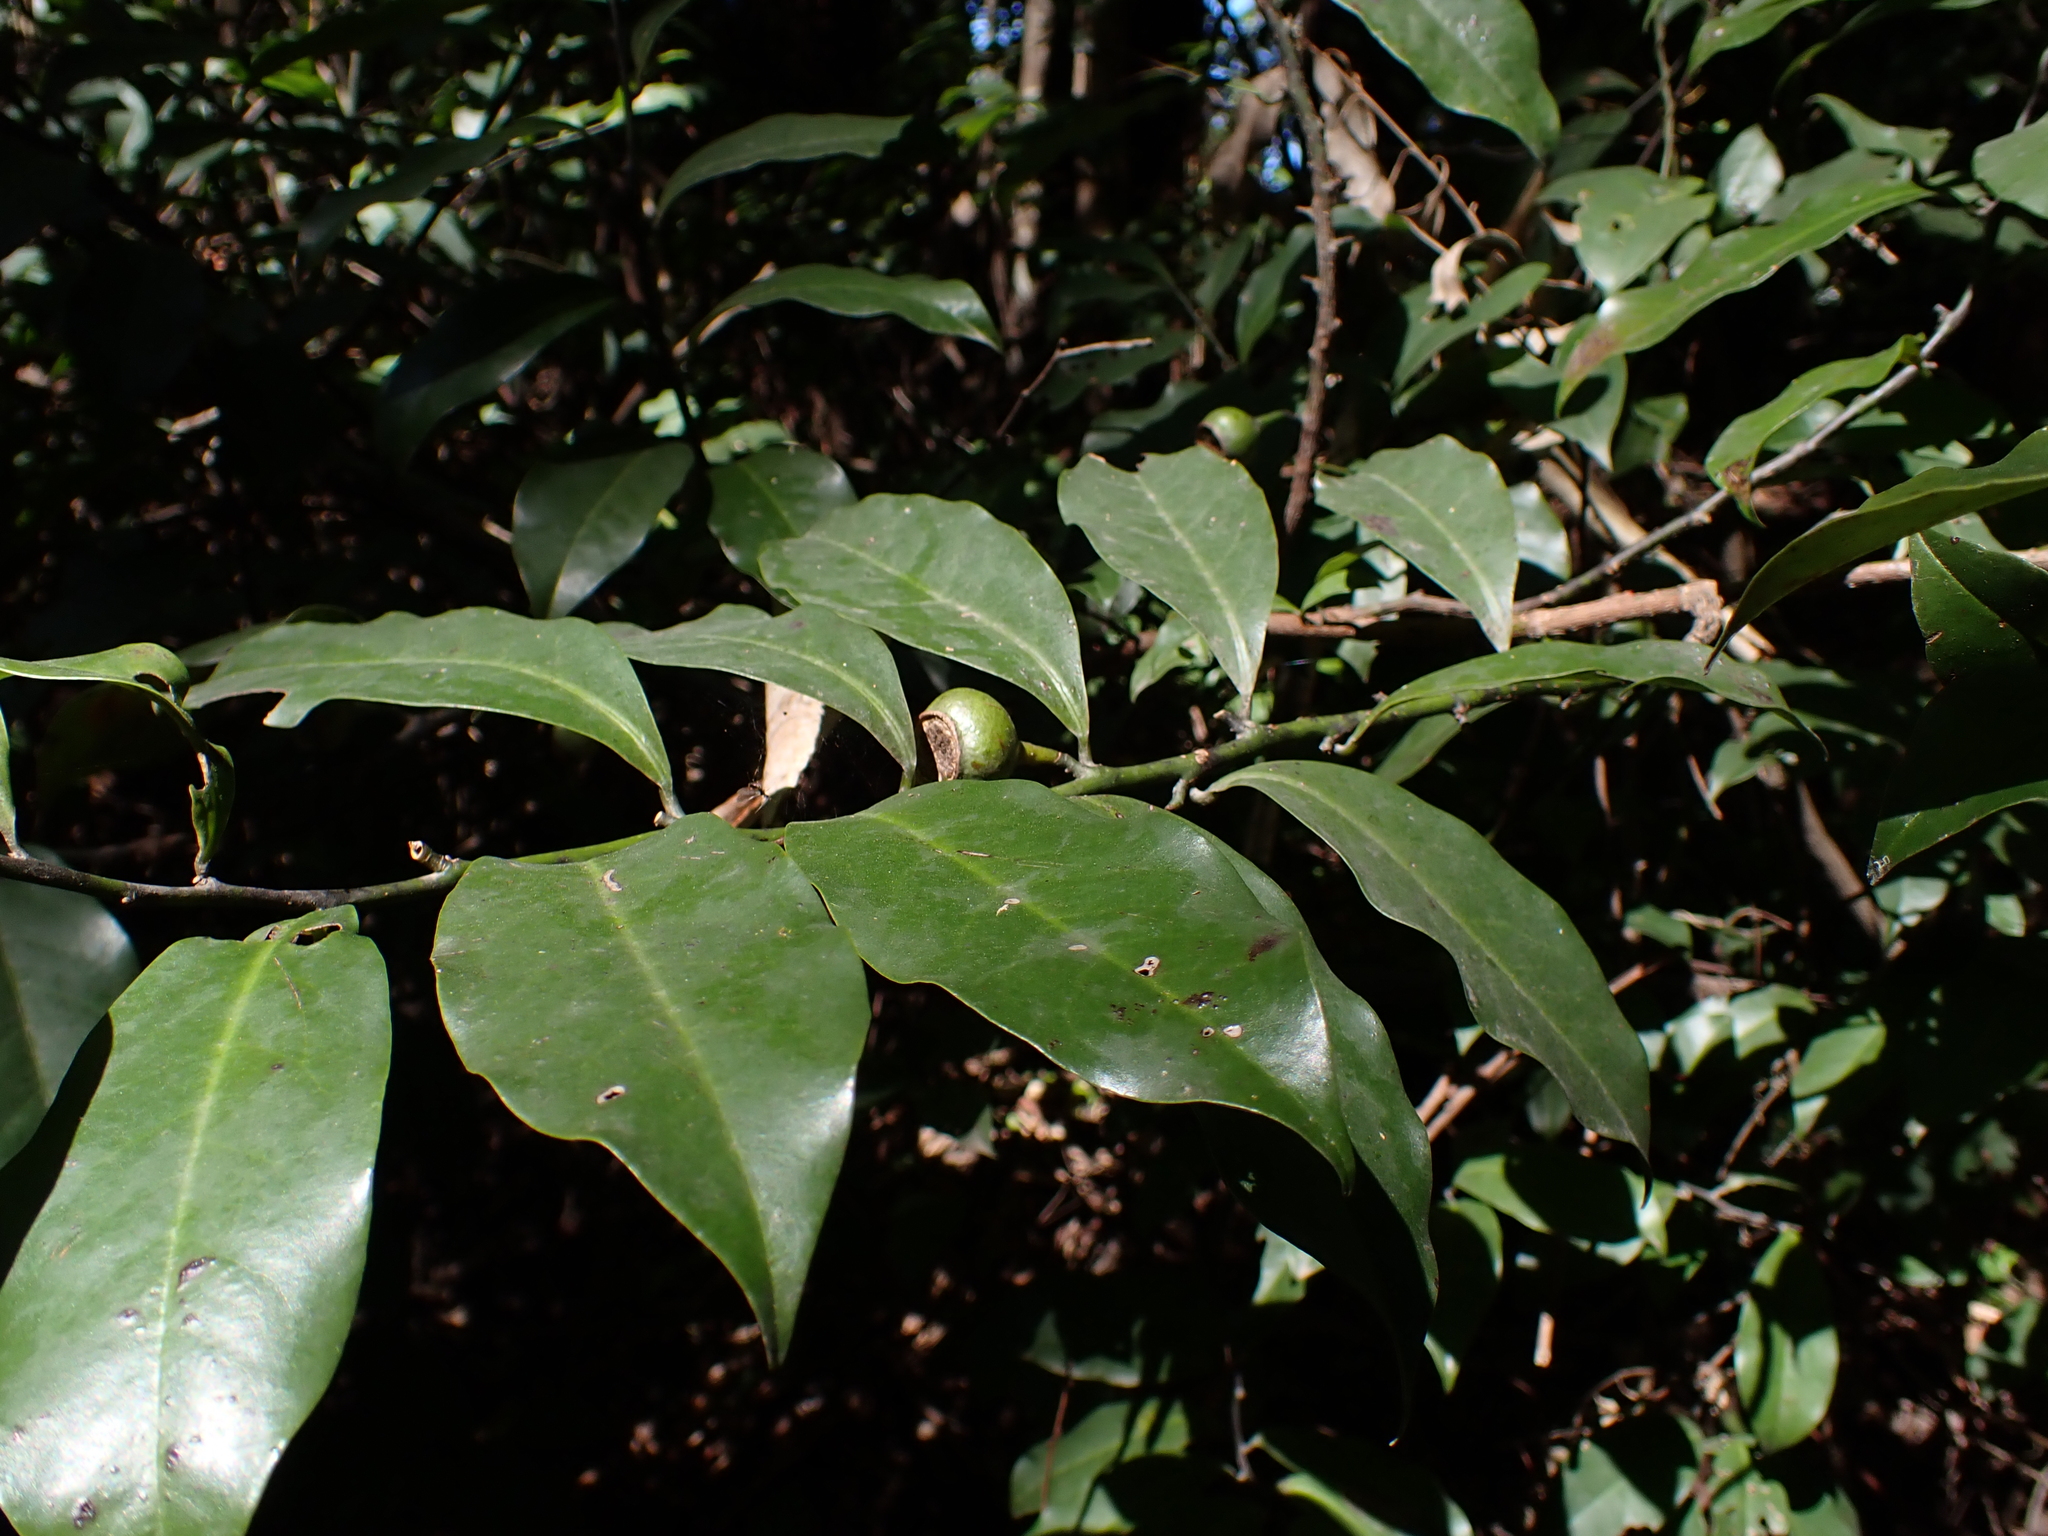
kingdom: Plantae
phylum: Tracheophyta
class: Magnoliopsida
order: Magnoliales
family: Eupomatiaceae
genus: Eupomatia
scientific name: Eupomatia laurina
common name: Bolwarra
